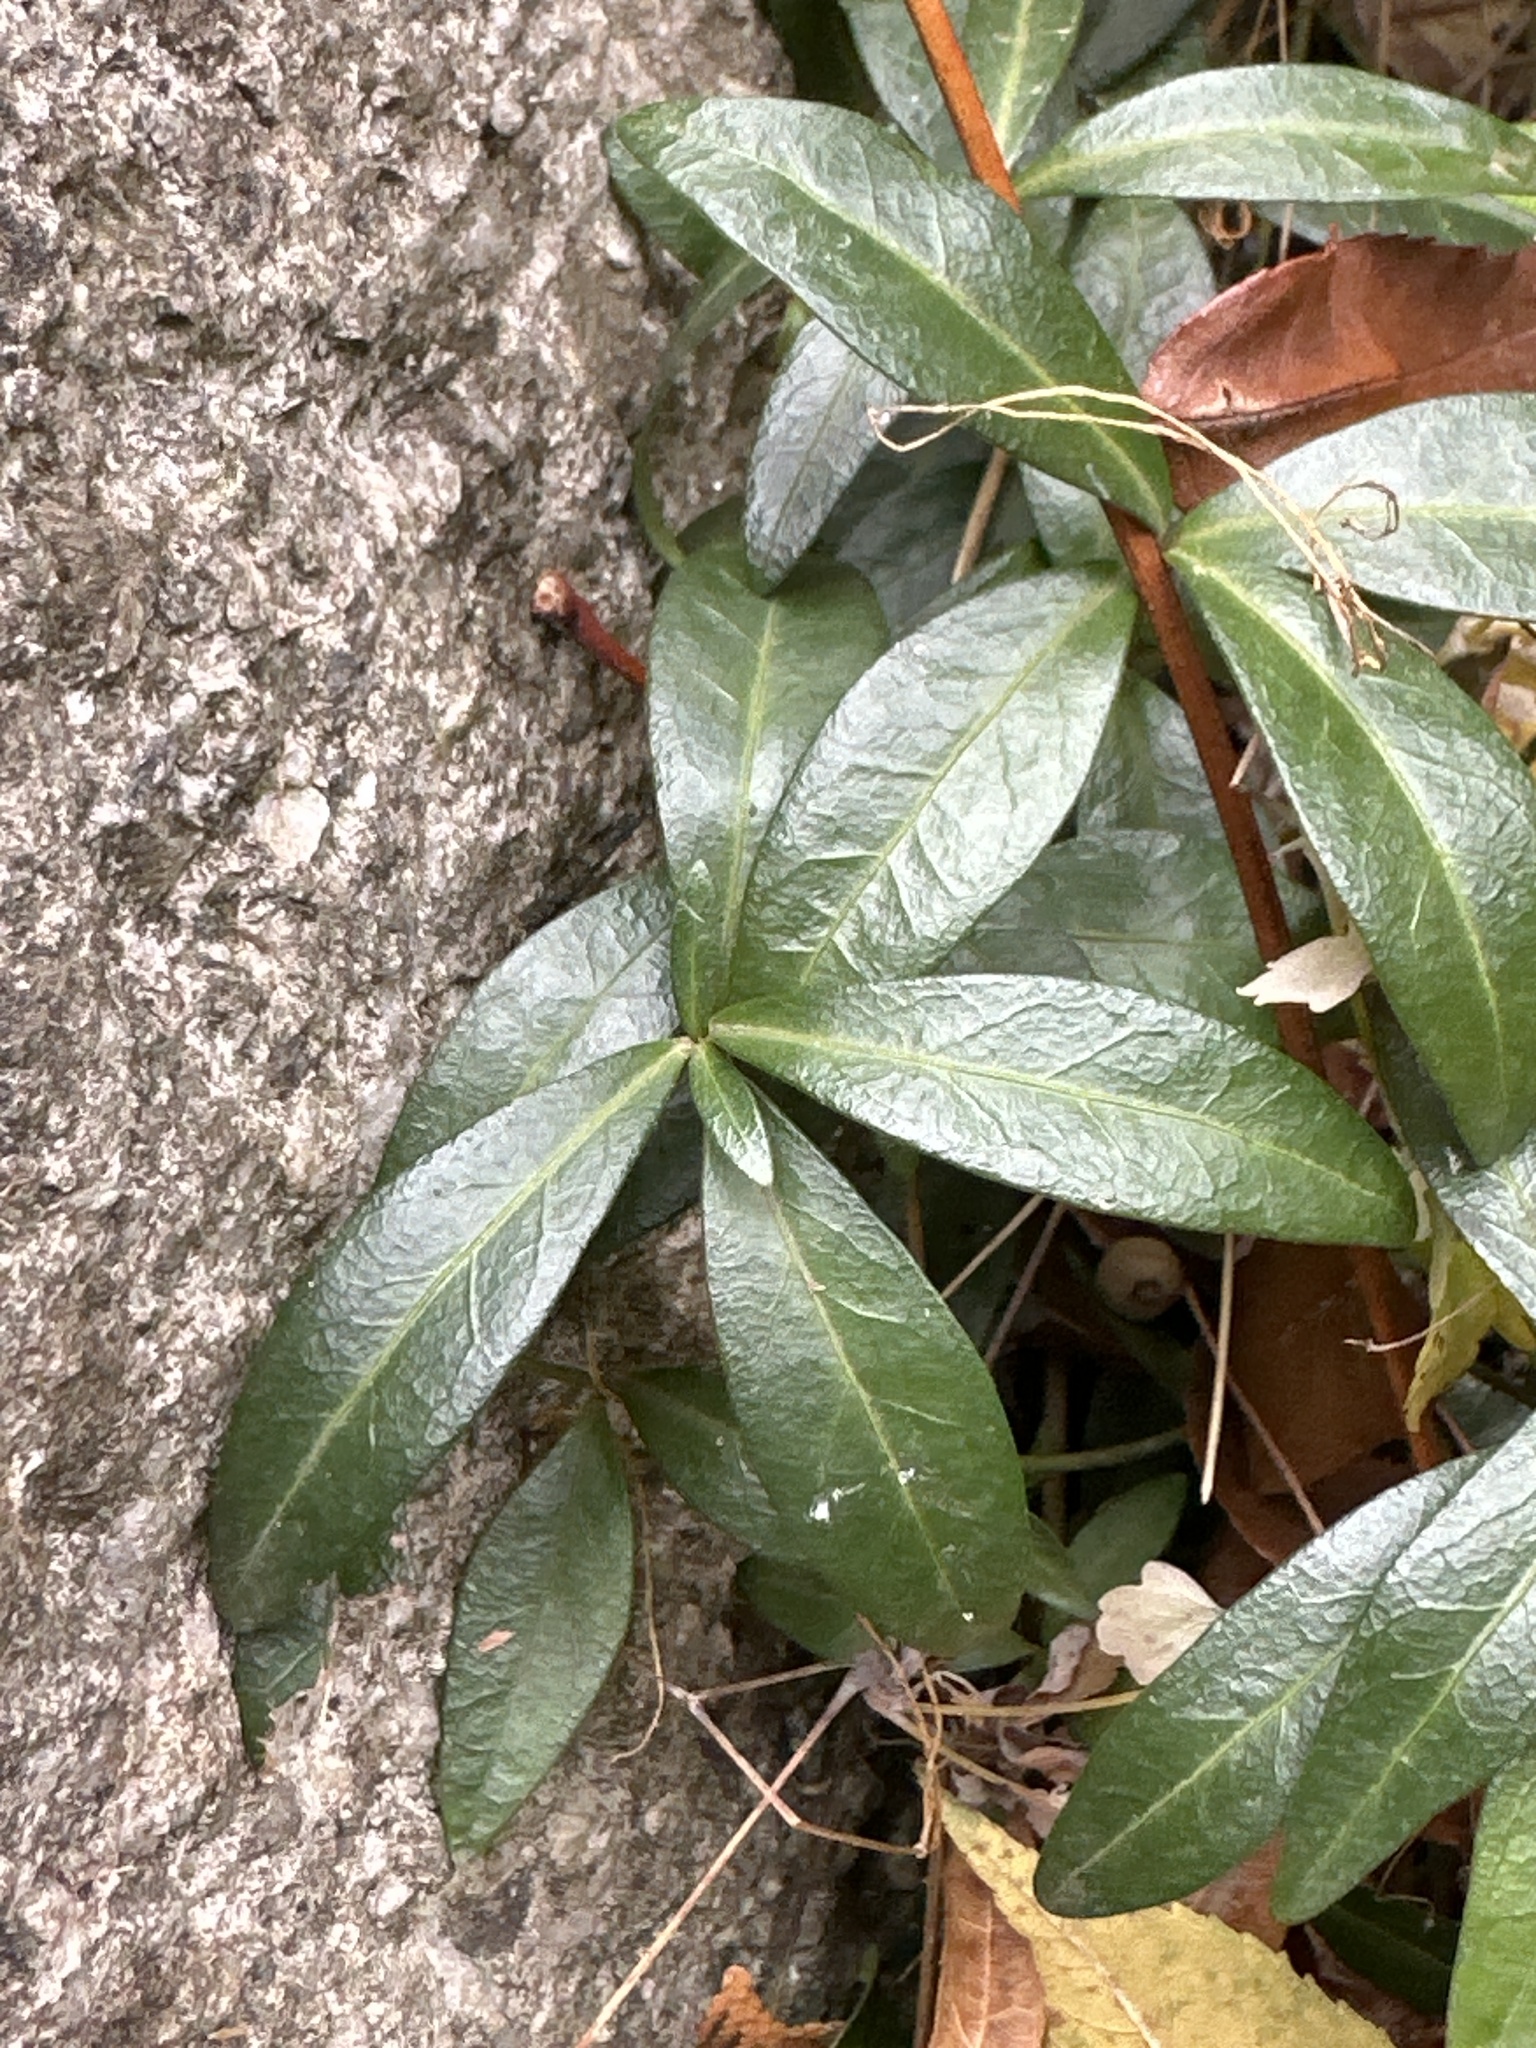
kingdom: Plantae
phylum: Tracheophyta
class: Magnoliopsida
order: Gentianales
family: Apocynaceae
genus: Vinca
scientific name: Vinca minor
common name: Lesser periwinkle
